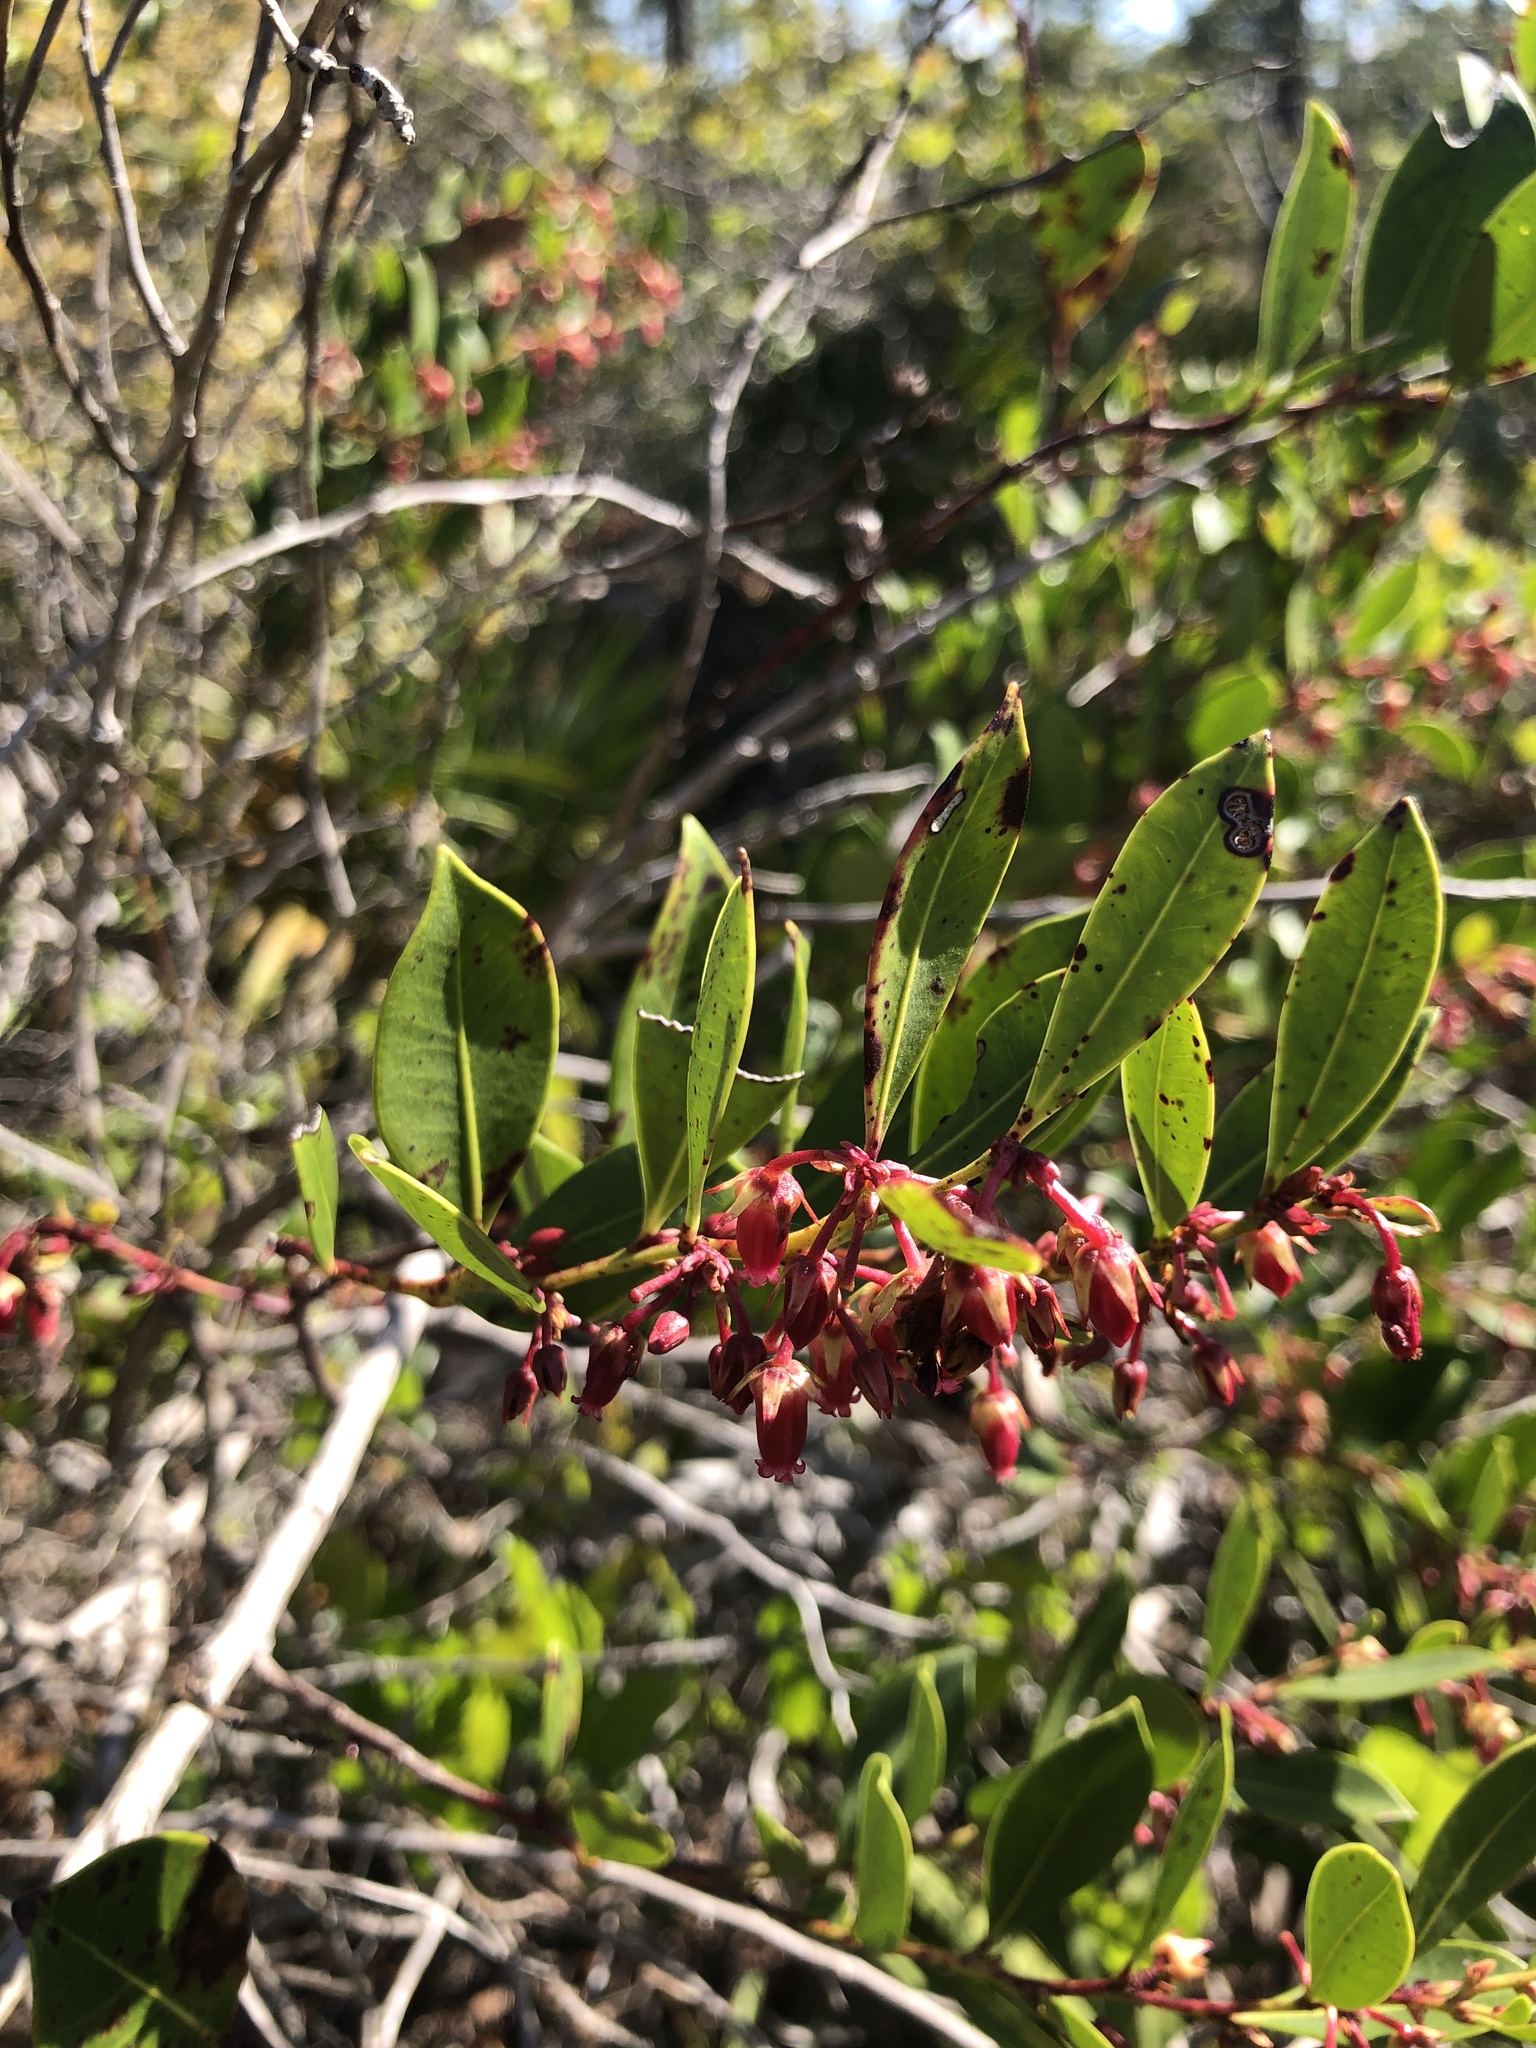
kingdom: Plantae
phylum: Tracheophyta
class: Magnoliopsida
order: Ericales
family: Ericaceae
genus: Lyonia
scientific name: Lyonia lucida
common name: Fetterbush
